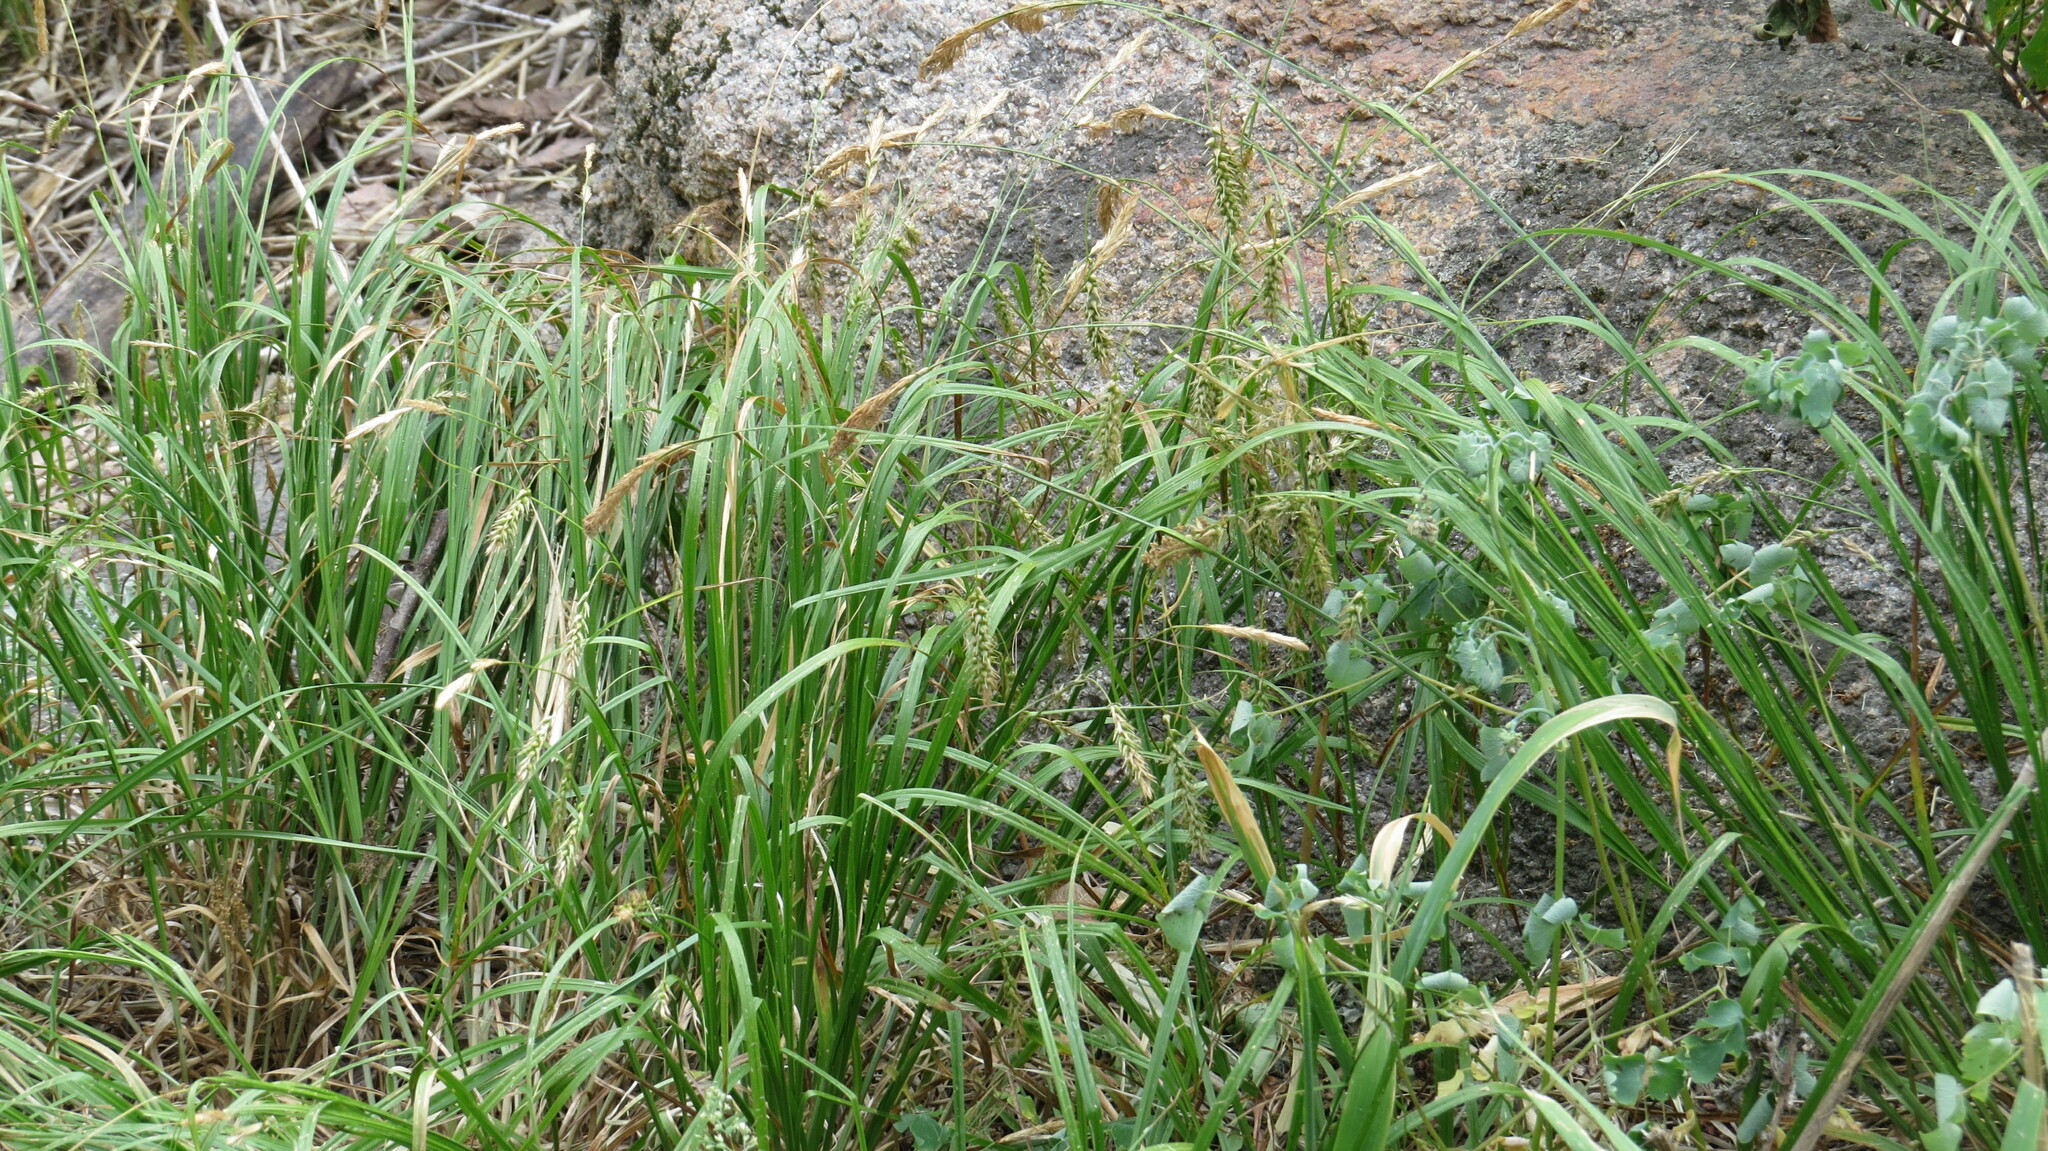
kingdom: Plantae
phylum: Tracheophyta
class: Liliopsida
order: Poales
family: Cyperaceae
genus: Carex
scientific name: Carex sprengelii
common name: Long-beaked sedge
